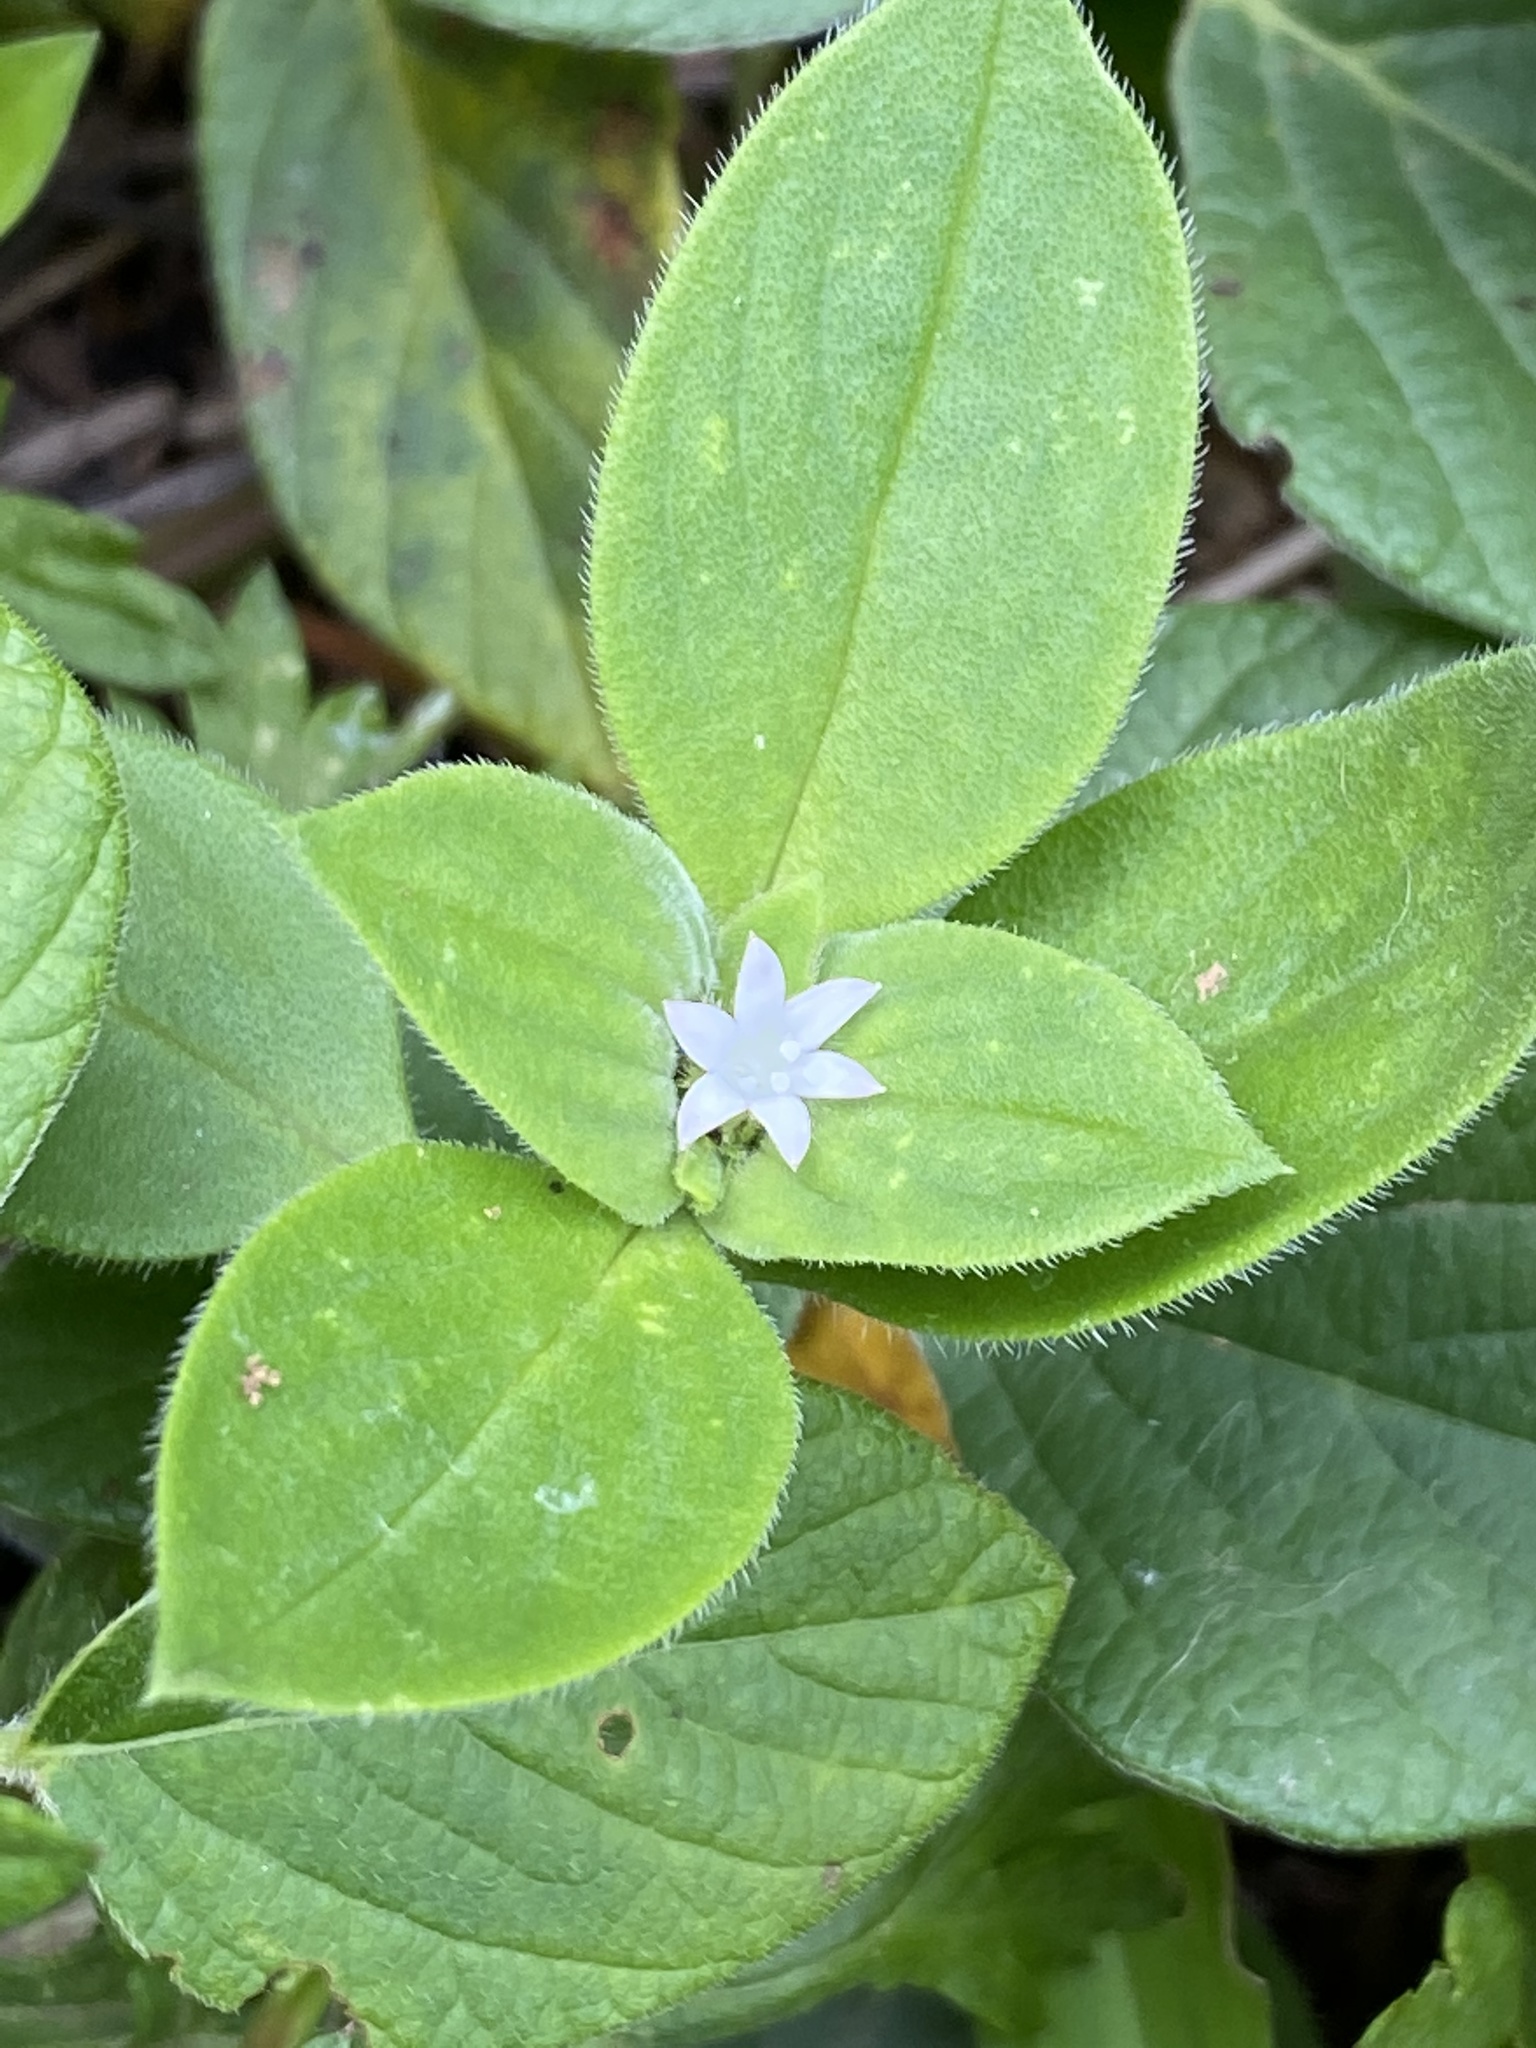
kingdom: Plantae
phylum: Tracheophyta
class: Magnoliopsida
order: Gentianales
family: Rubiaceae
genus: Richardia
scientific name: Richardia brasiliensis
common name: Tropical mexican clover
